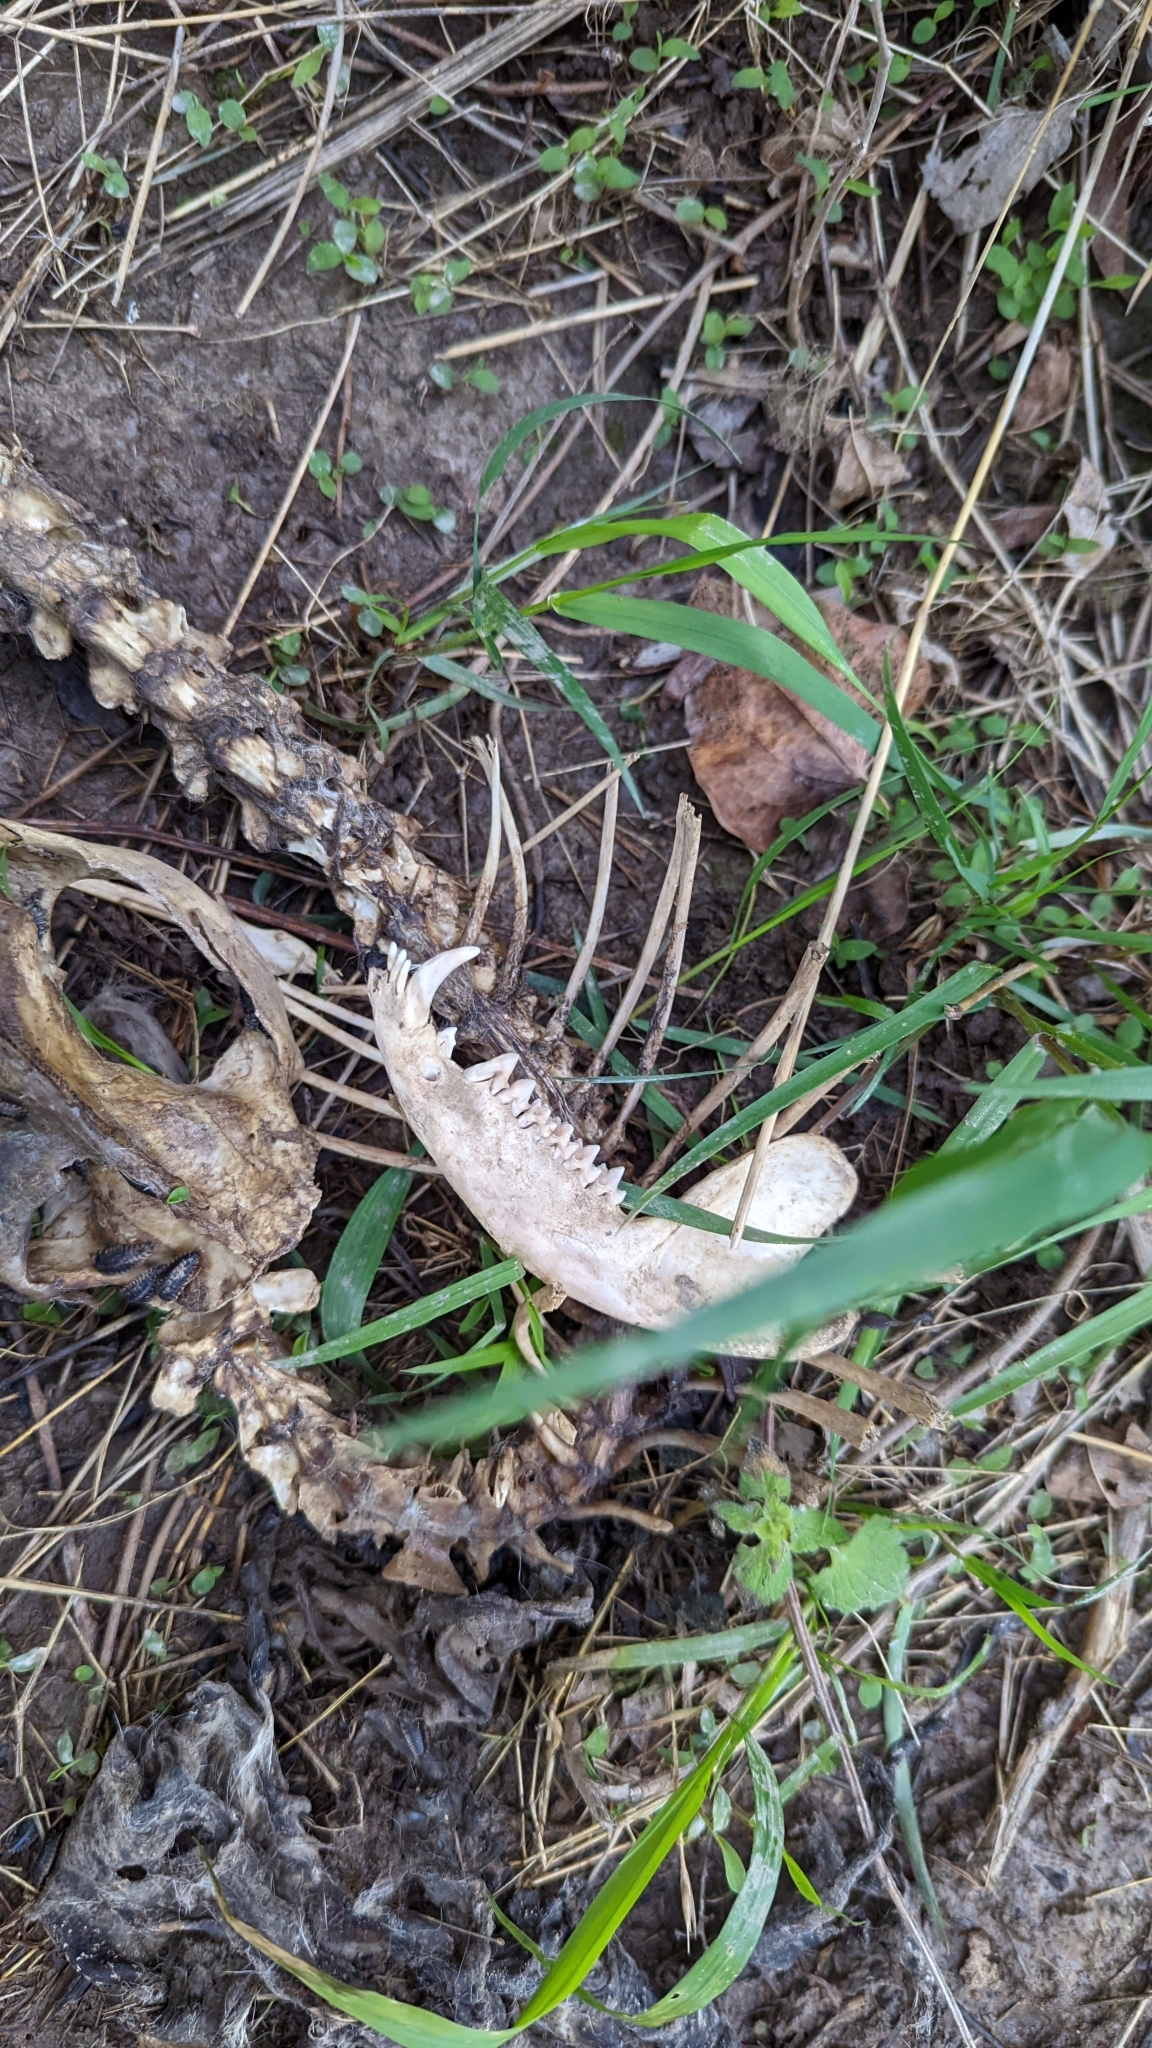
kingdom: Animalia
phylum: Chordata
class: Mammalia
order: Didelphimorphia
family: Didelphidae
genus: Didelphis
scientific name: Didelphis virginiana
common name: Virginia opossum
